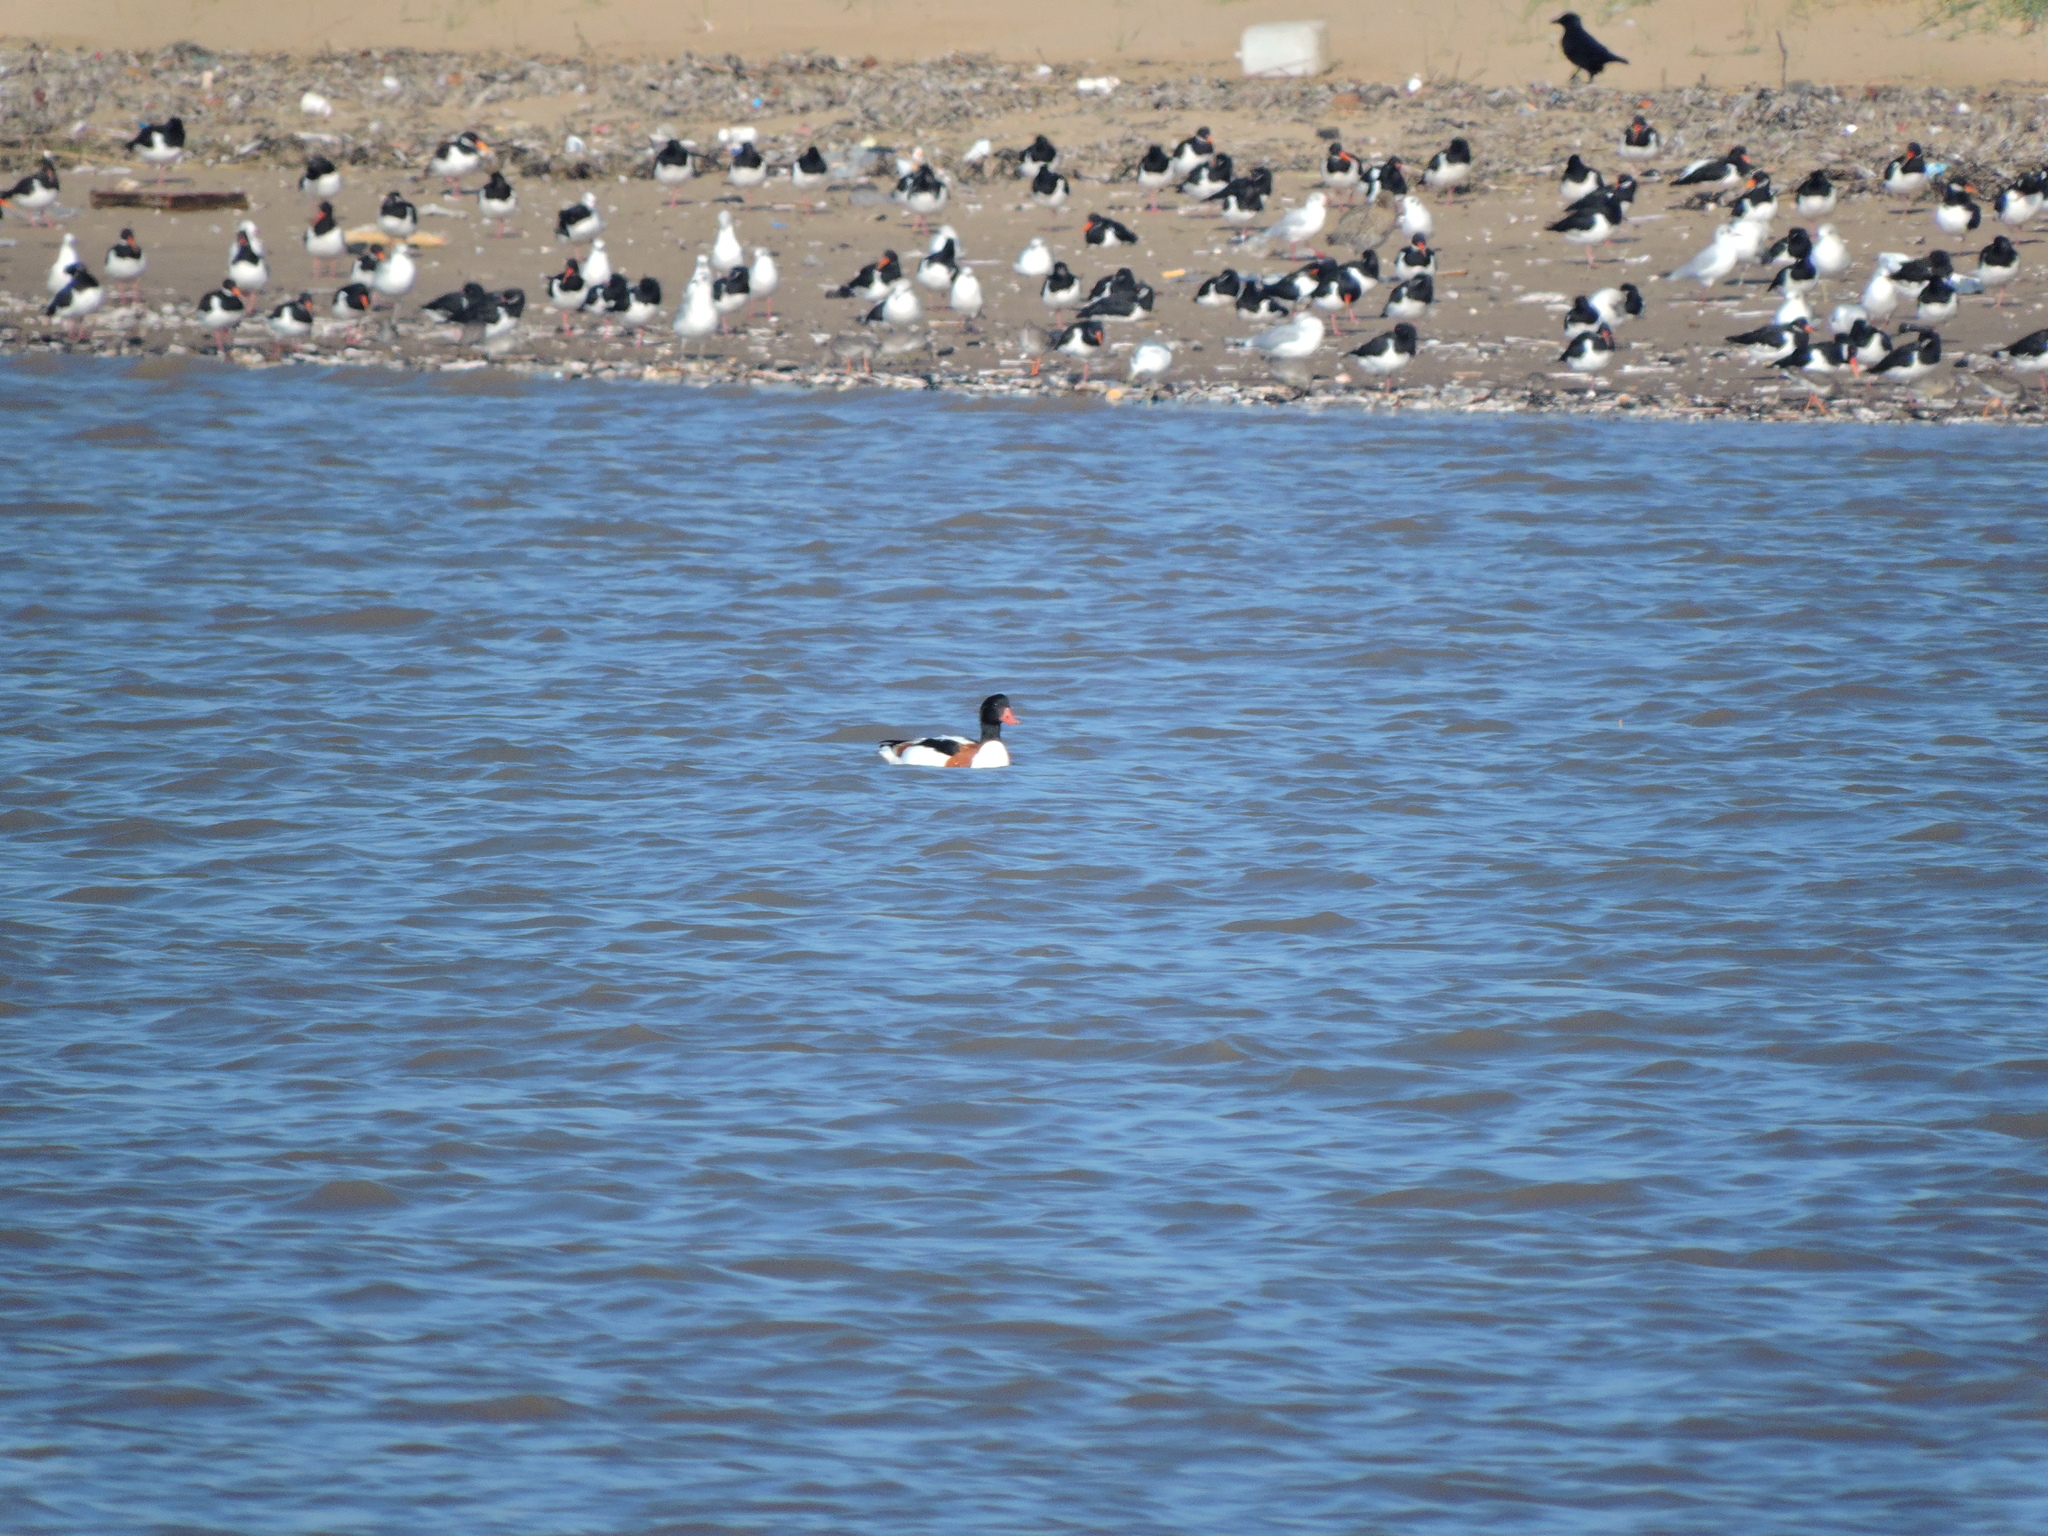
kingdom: Animalia
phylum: Chordata
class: Aves
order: Anseriformes
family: Anatidae
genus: Tadorna
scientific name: Tadorna tadorna
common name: Common shelduck
